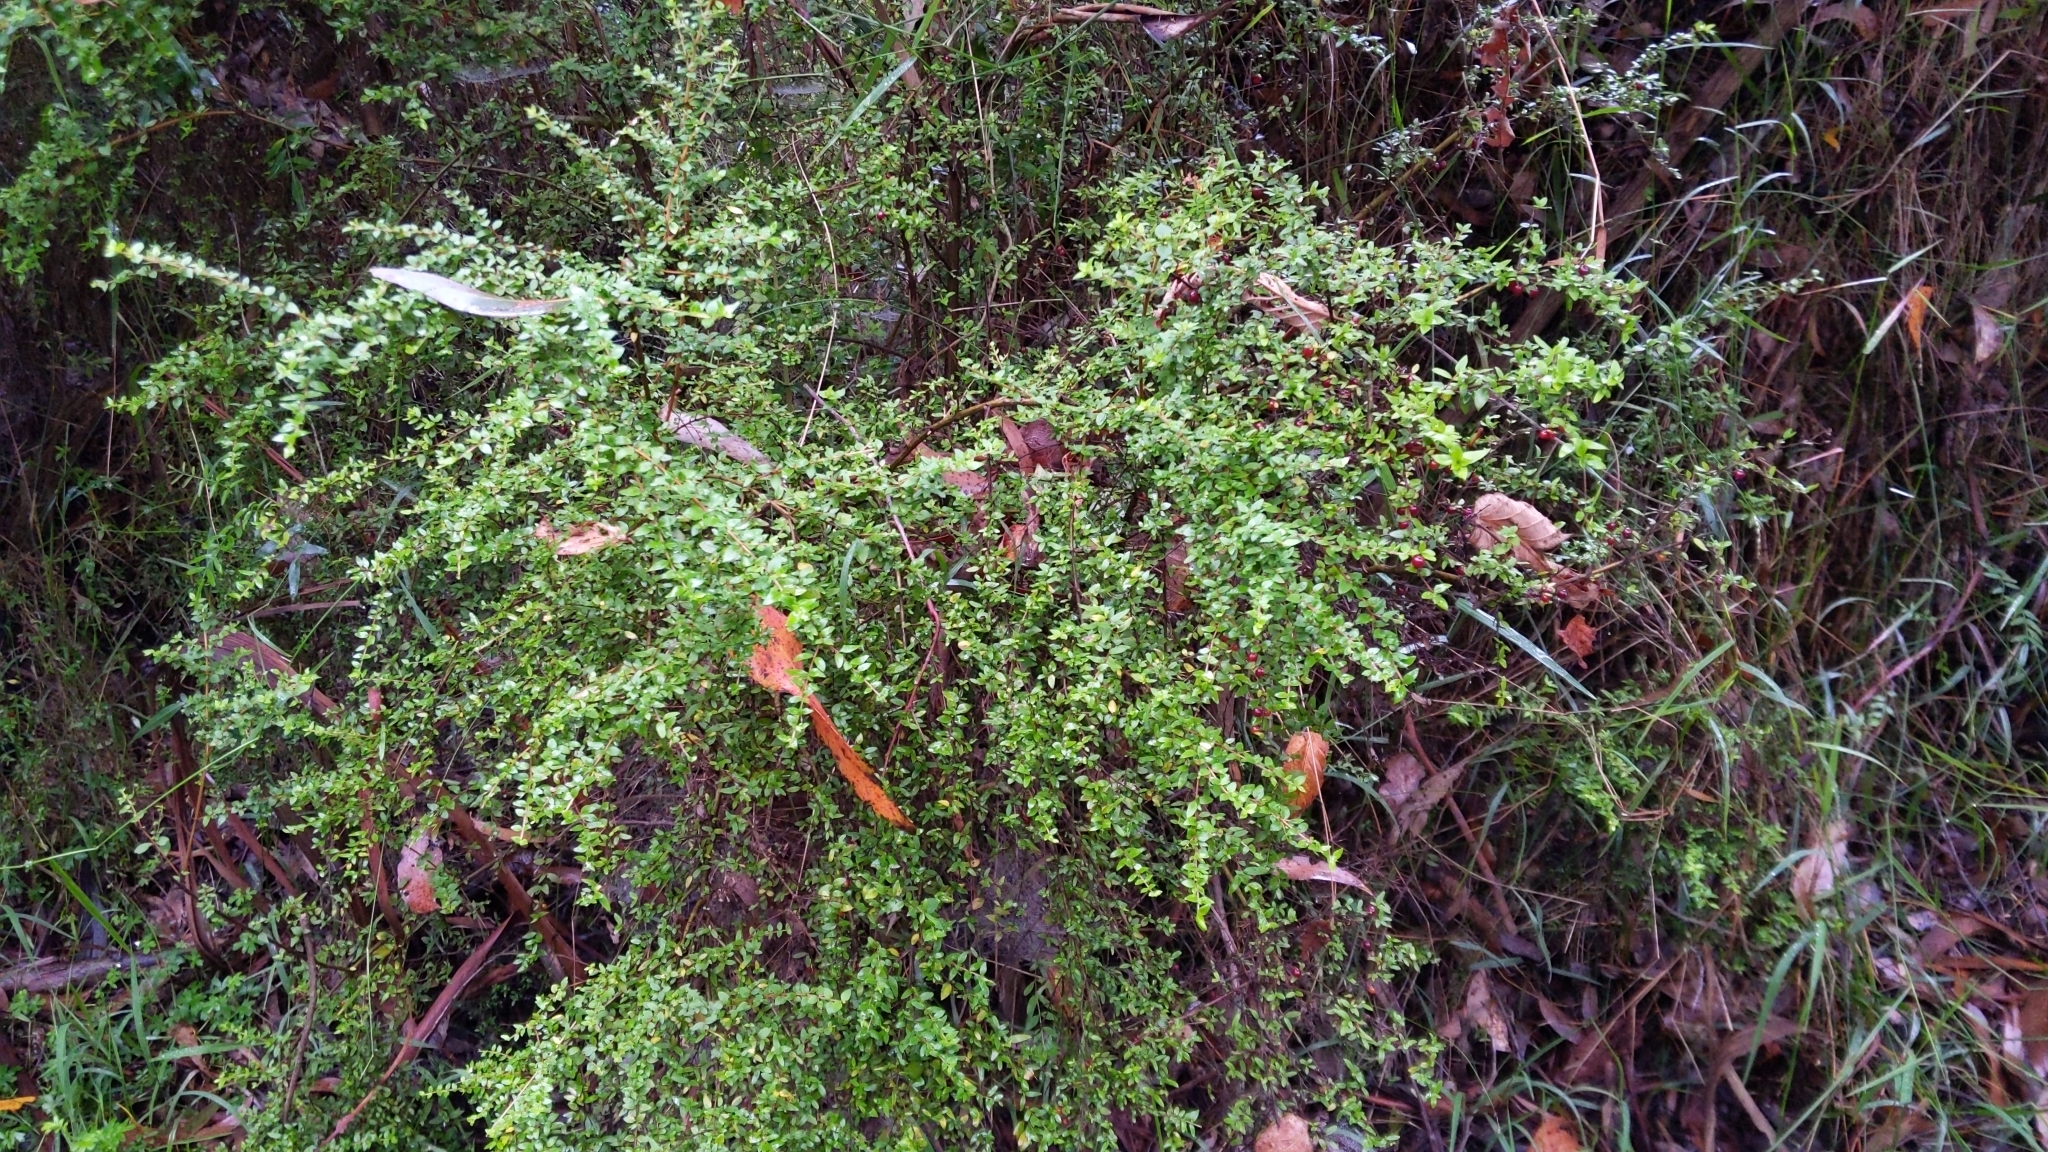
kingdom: Plantae
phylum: Tracheophyta
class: Magnoliopsida
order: Gentianales
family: Rubiaceae
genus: Coprosma
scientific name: Coprosma quadrifida
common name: Prickly currantbush
